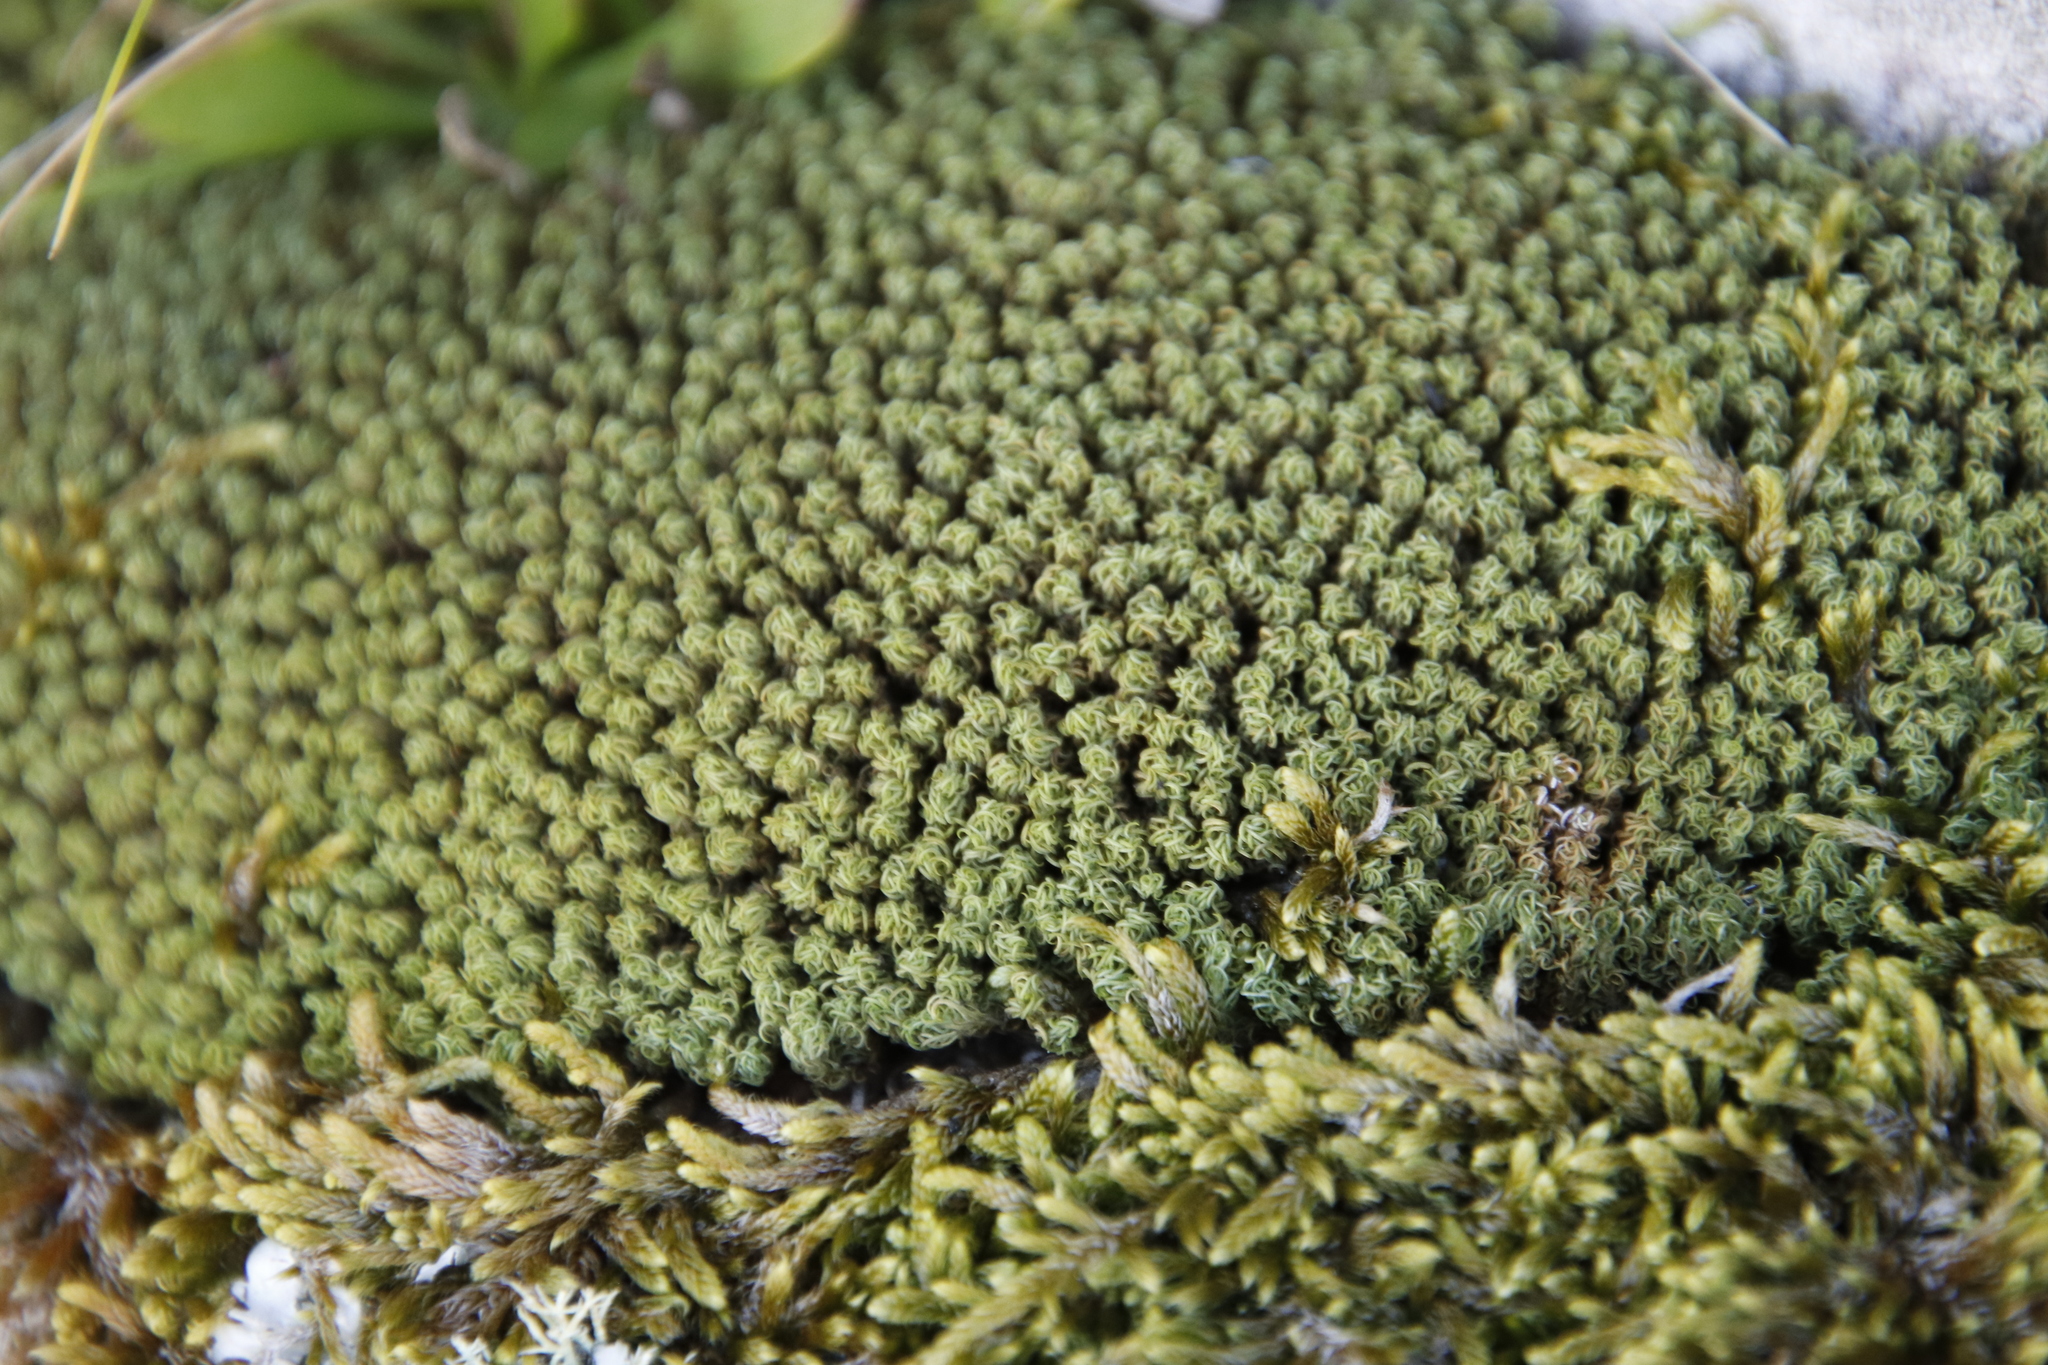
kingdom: Plantae
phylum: Bryophyta
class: Bryopsida
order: Dicranales
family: Hypodontiaceae
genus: Hypodontium
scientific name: Hypodontium dregei
